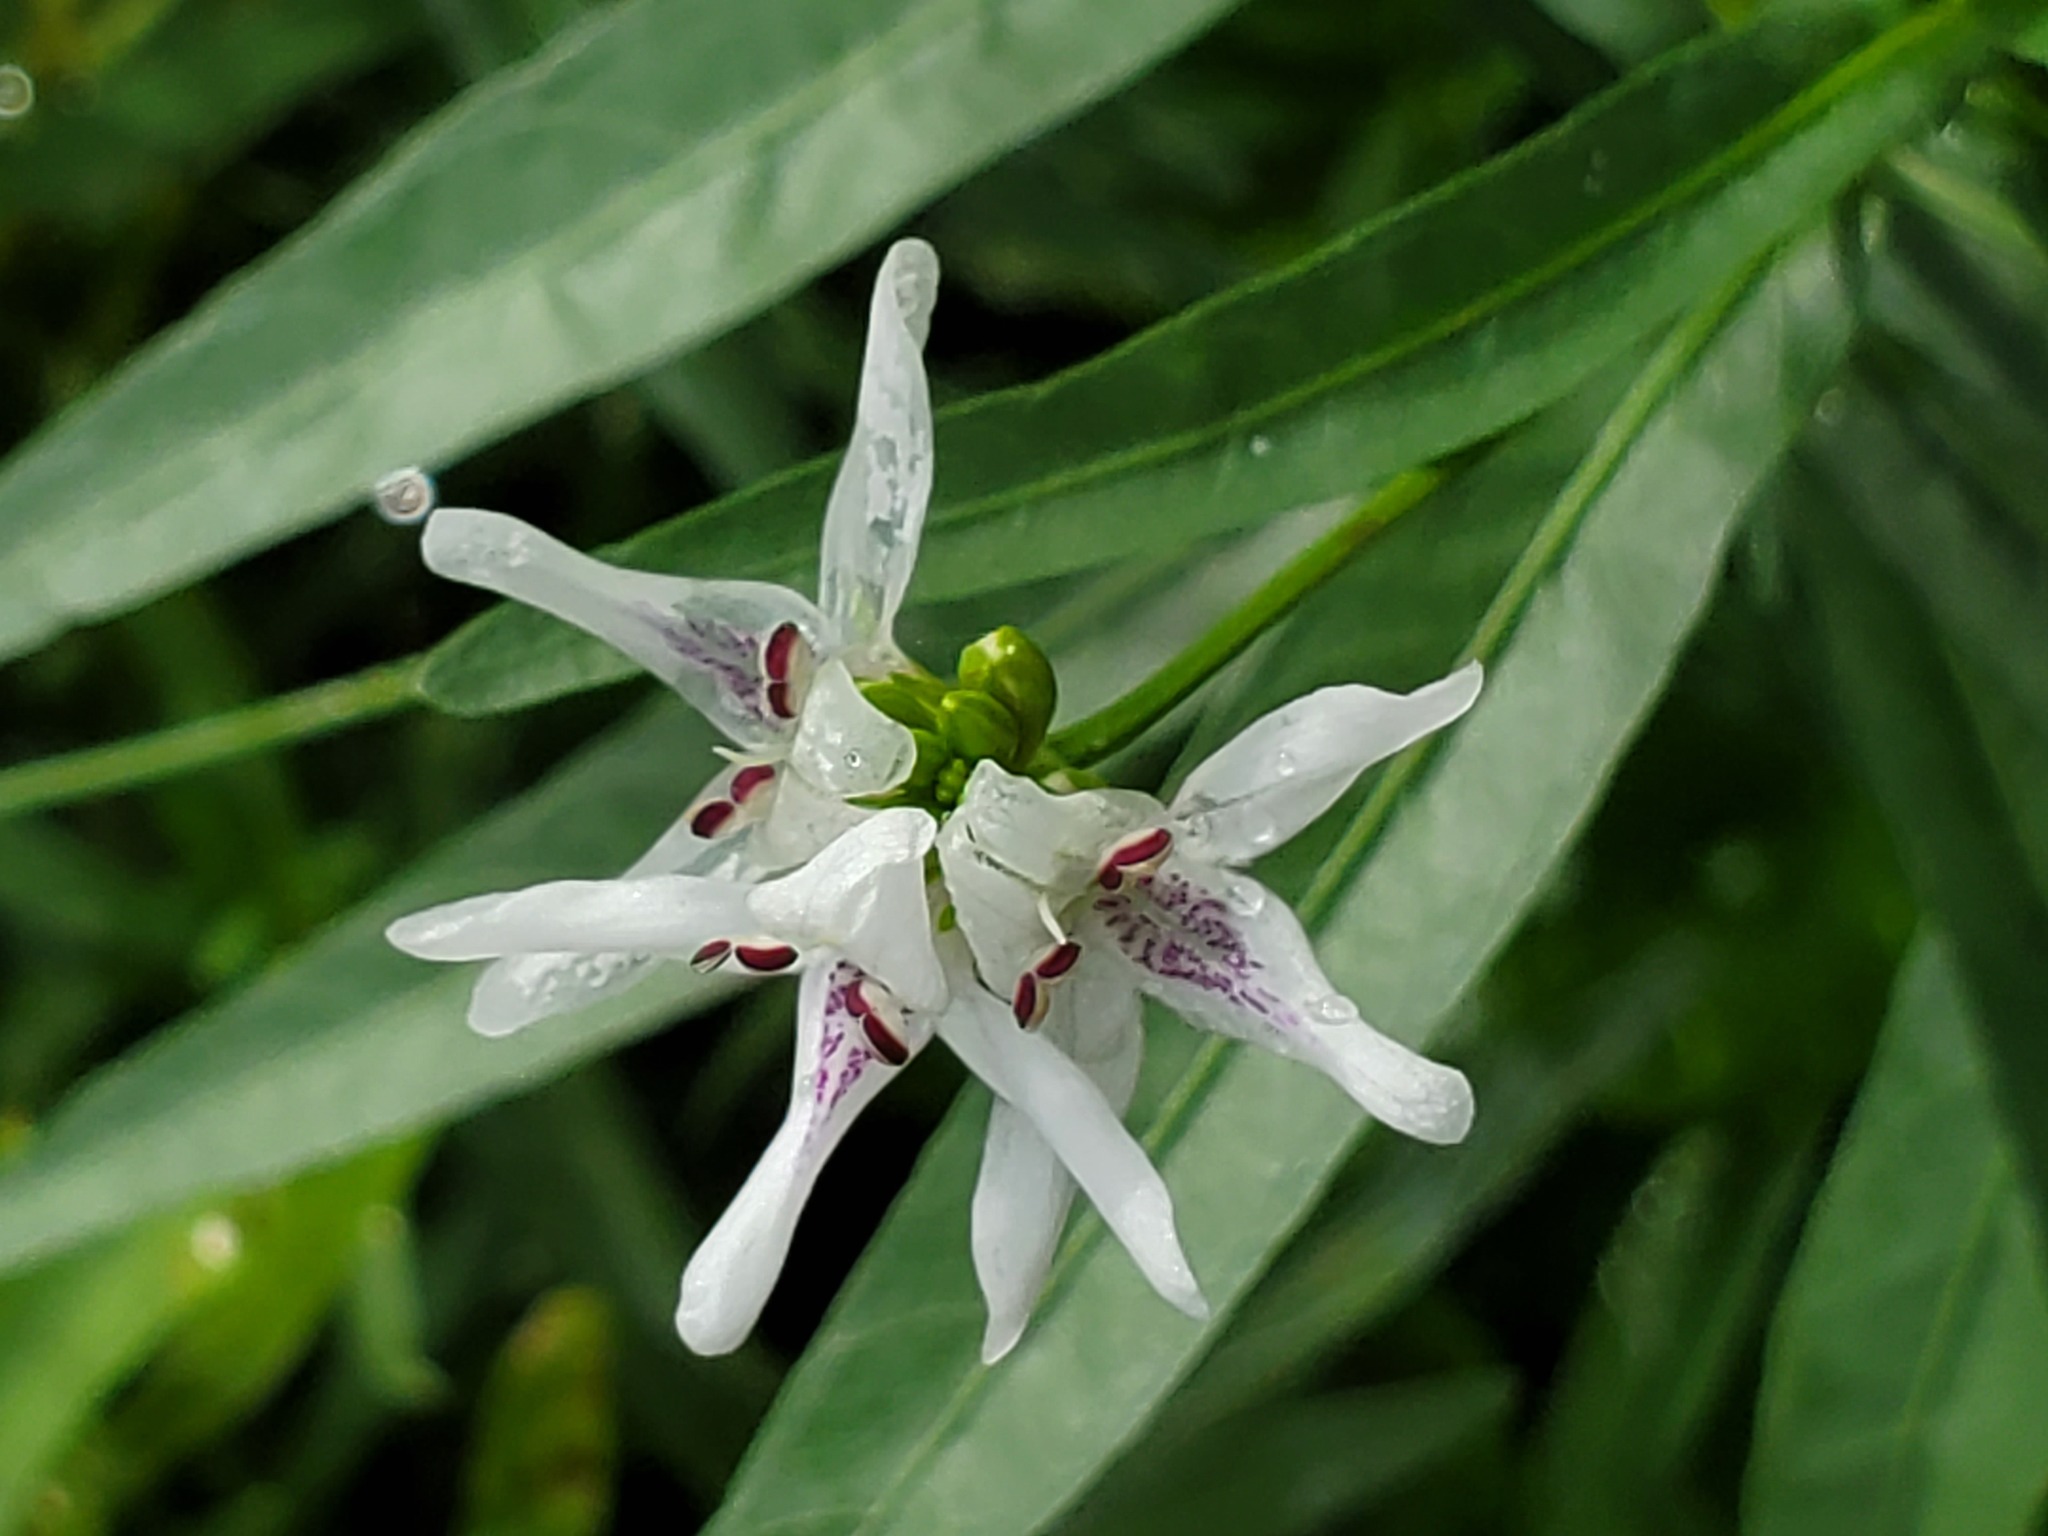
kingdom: Plantae
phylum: Tracheophyta
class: Magnoliopsida
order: Lamiales
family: Acanthaceae
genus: Dianthera
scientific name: Dianthera americana
